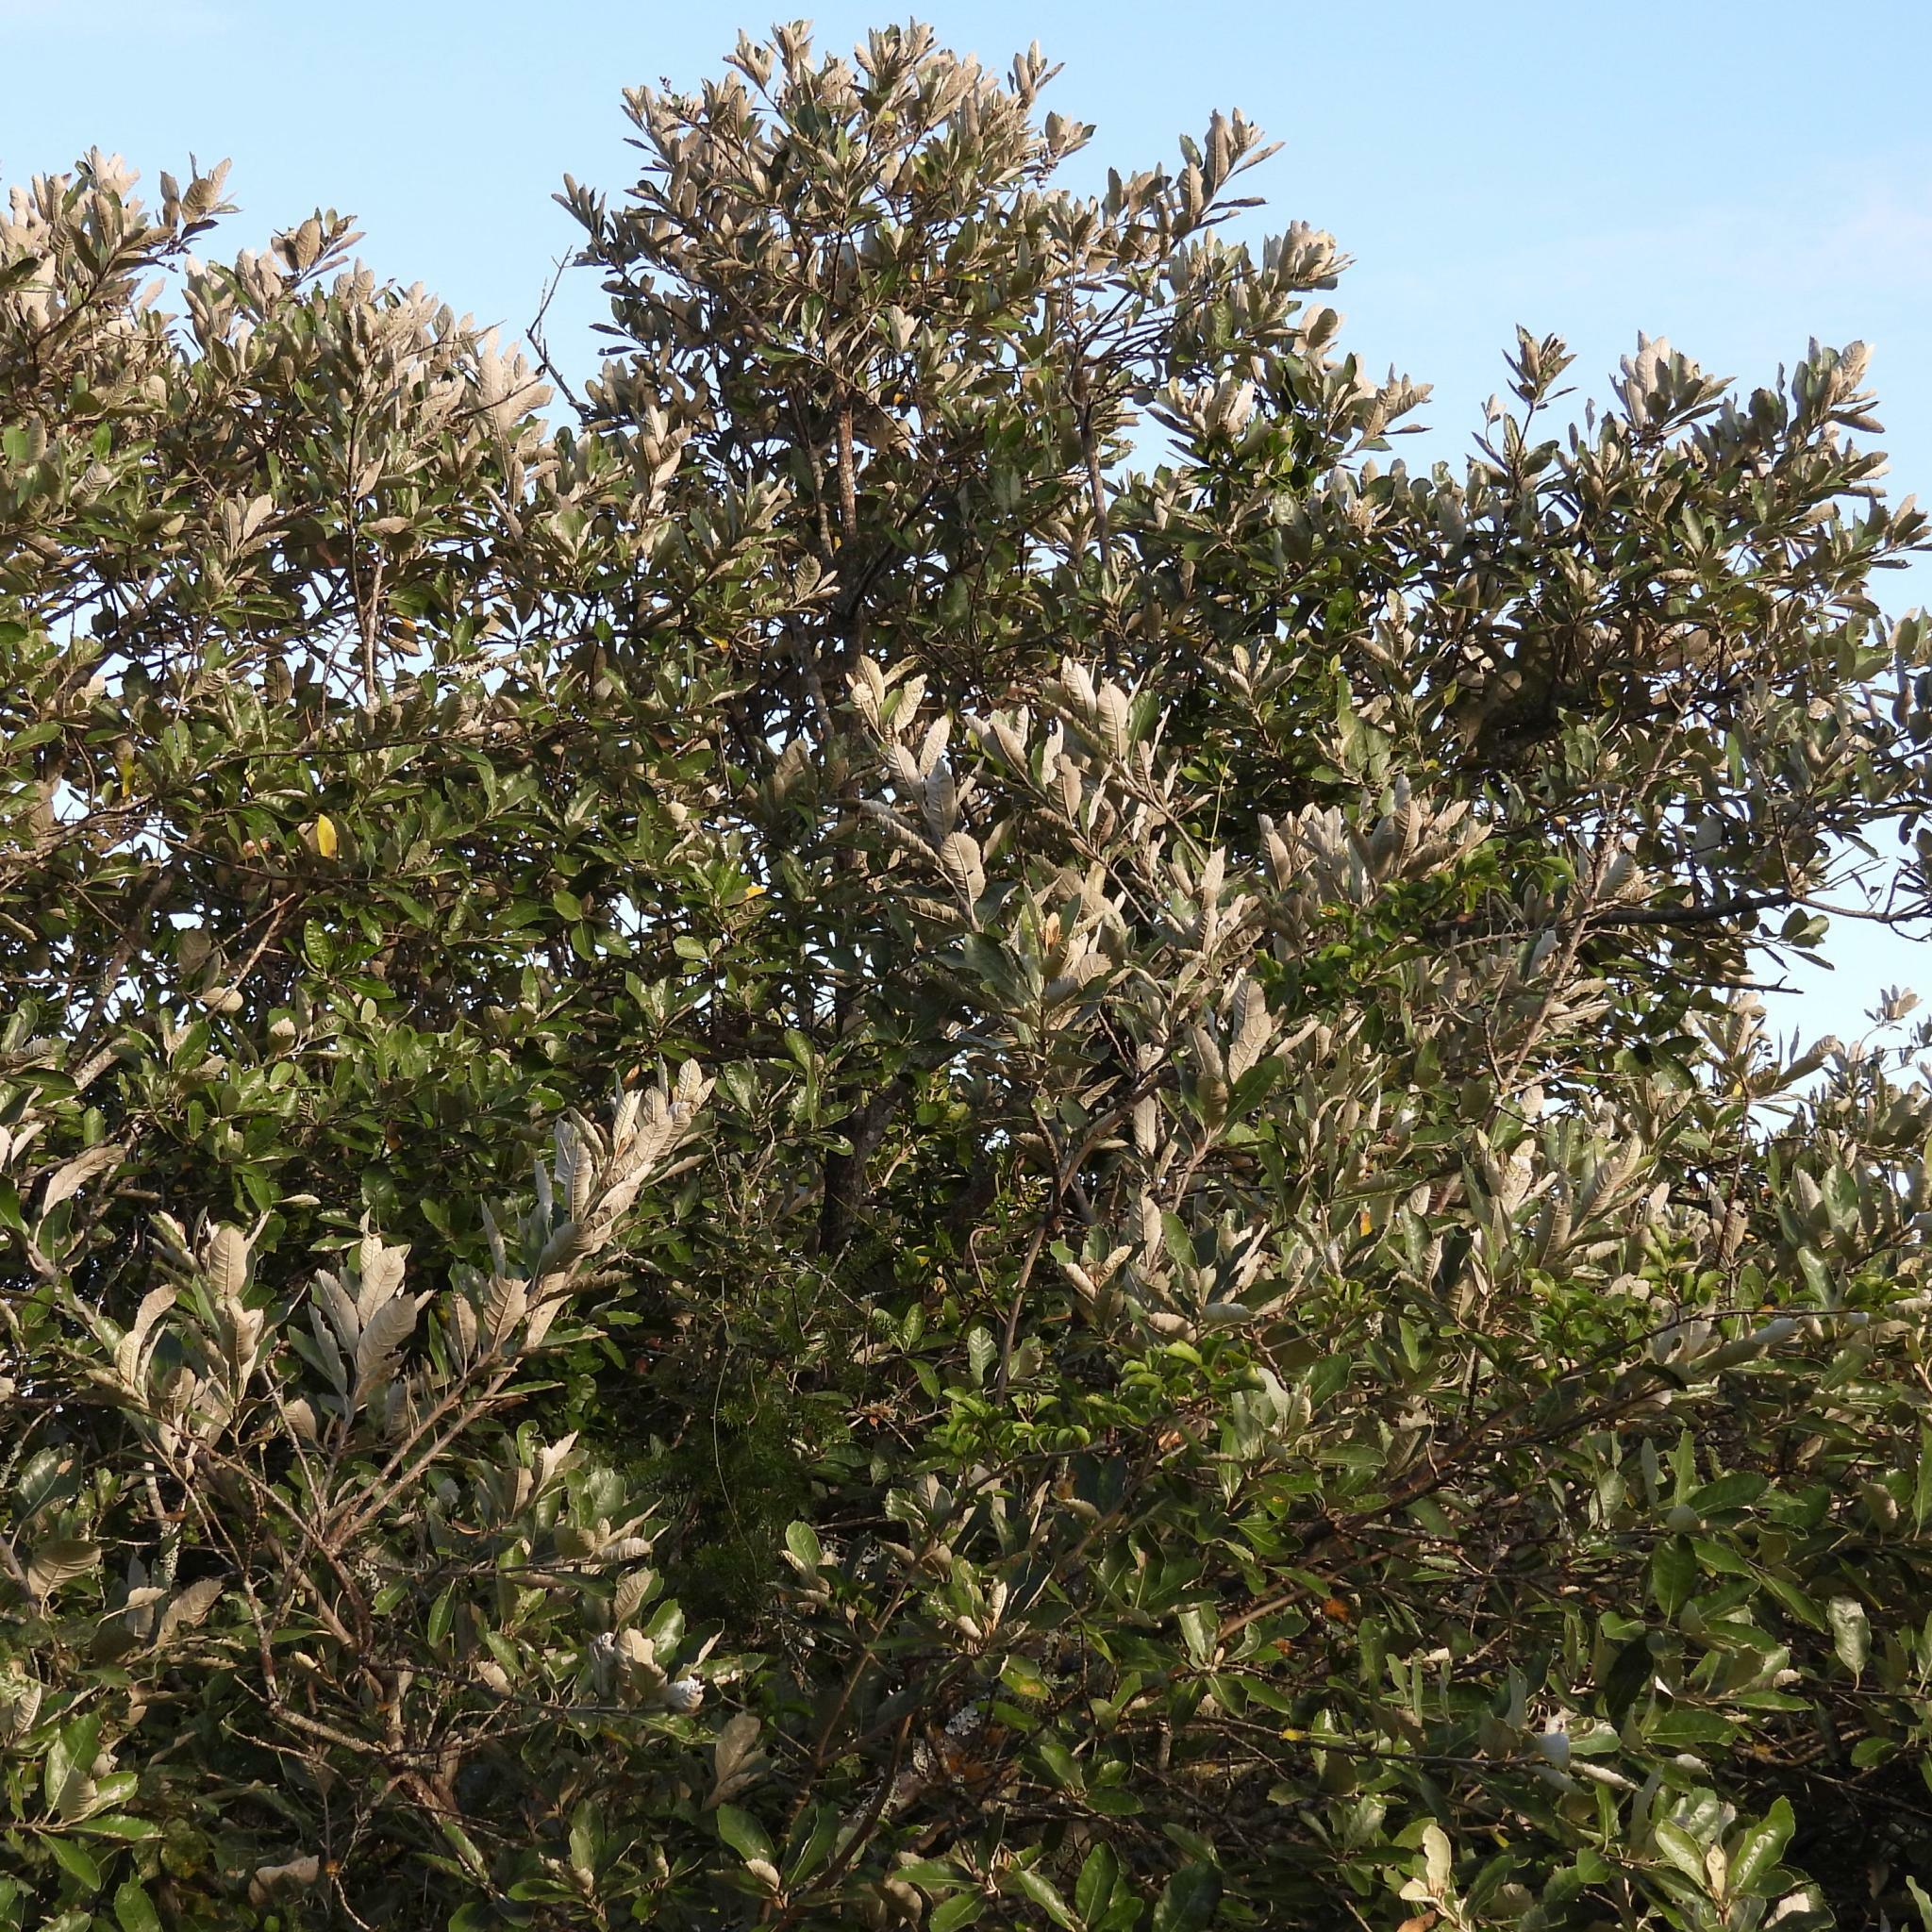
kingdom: Plantae
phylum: Tracheophyta
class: Magnoliopsida
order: Asterales
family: Asteraceae
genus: Brachylaena
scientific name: Brachylaena discolor
